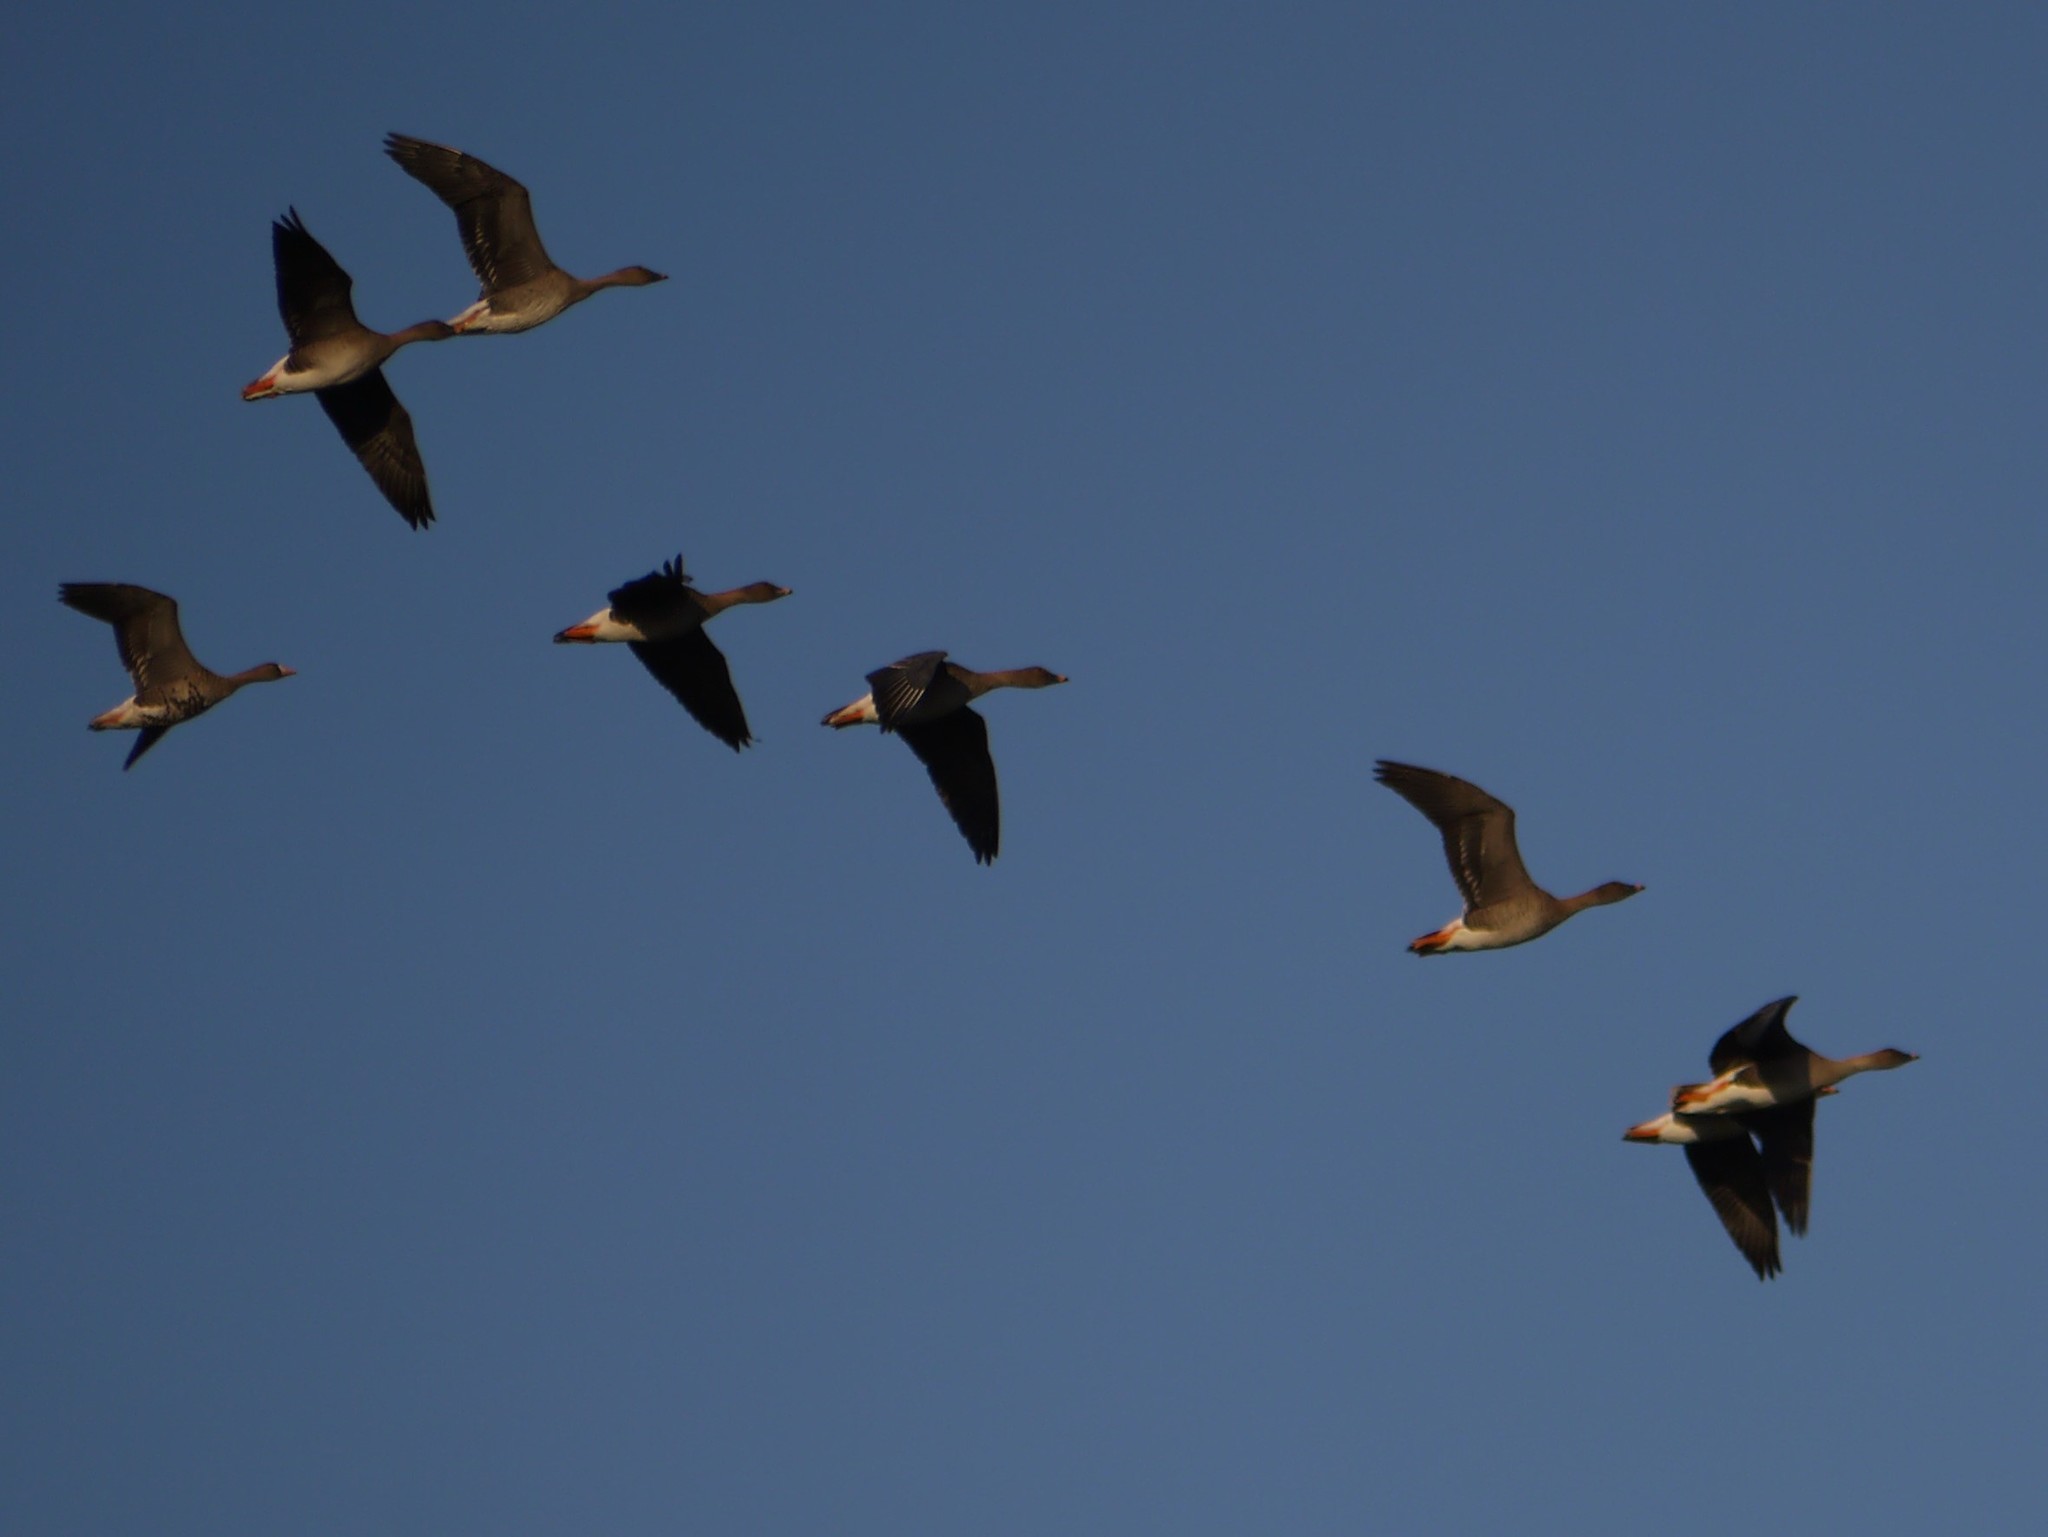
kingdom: Animalia
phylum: Chordata
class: Aves
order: Anseriformes
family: Anatidae
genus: Anser
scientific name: Anser serrirostris
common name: Tundra bean goose
